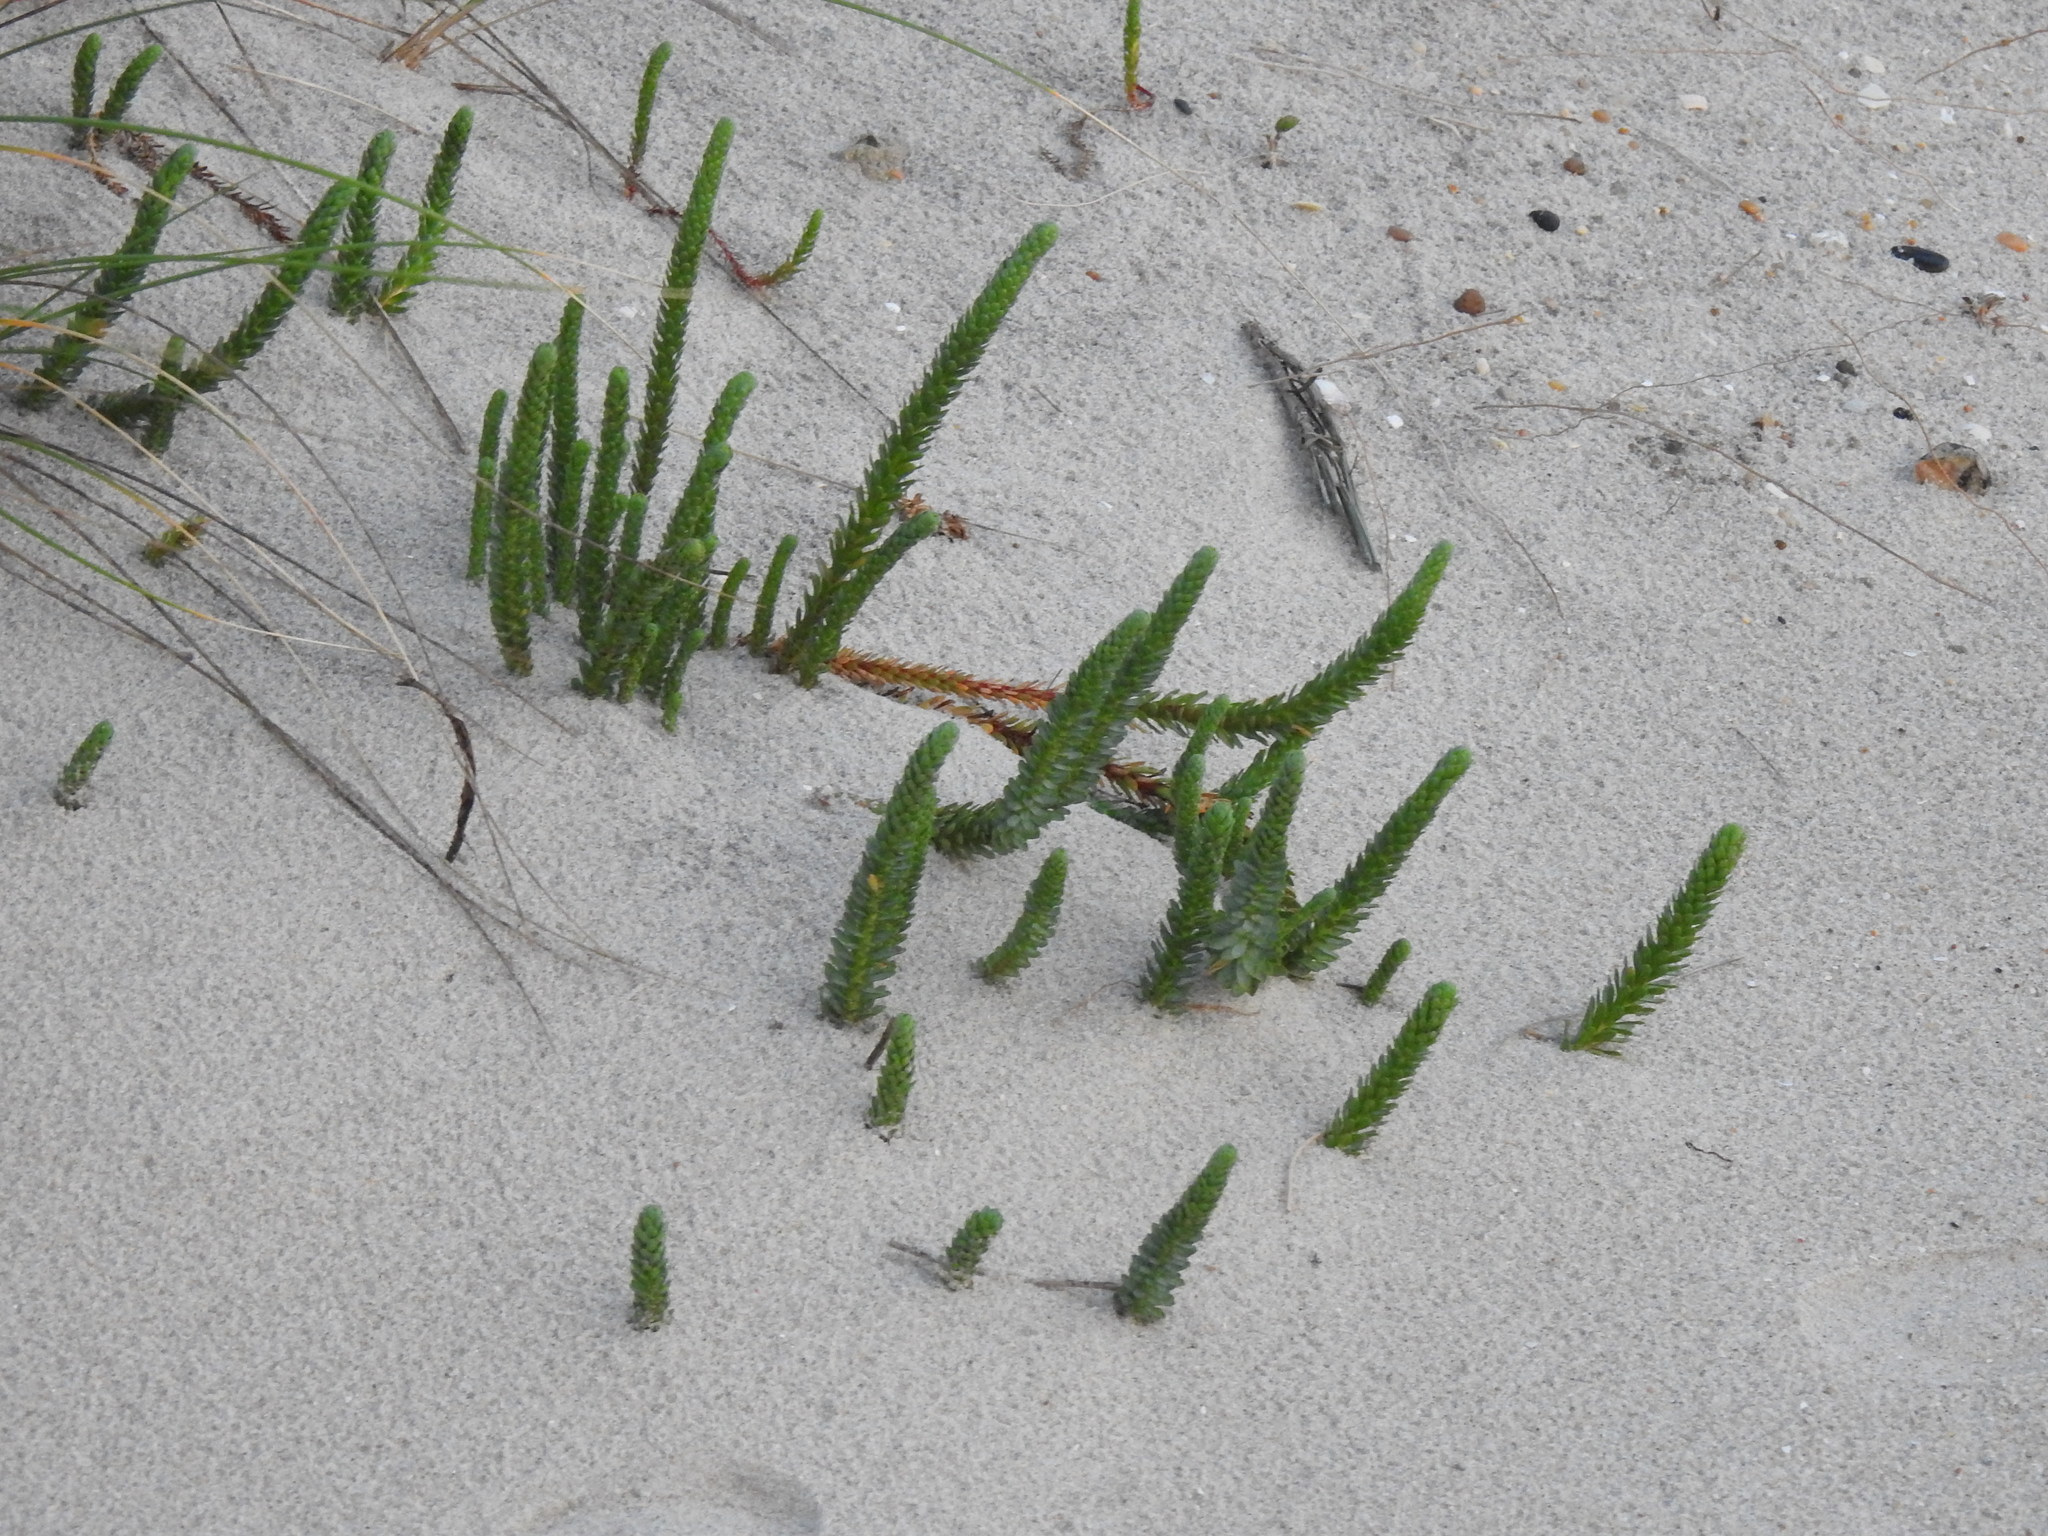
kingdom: Plantae
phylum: Tracheophyta
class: Magnoliopsida
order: Malpighiales
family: Euphorbiaceae
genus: Euphorbia
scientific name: Euphorbia paralias
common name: Sea spurge
